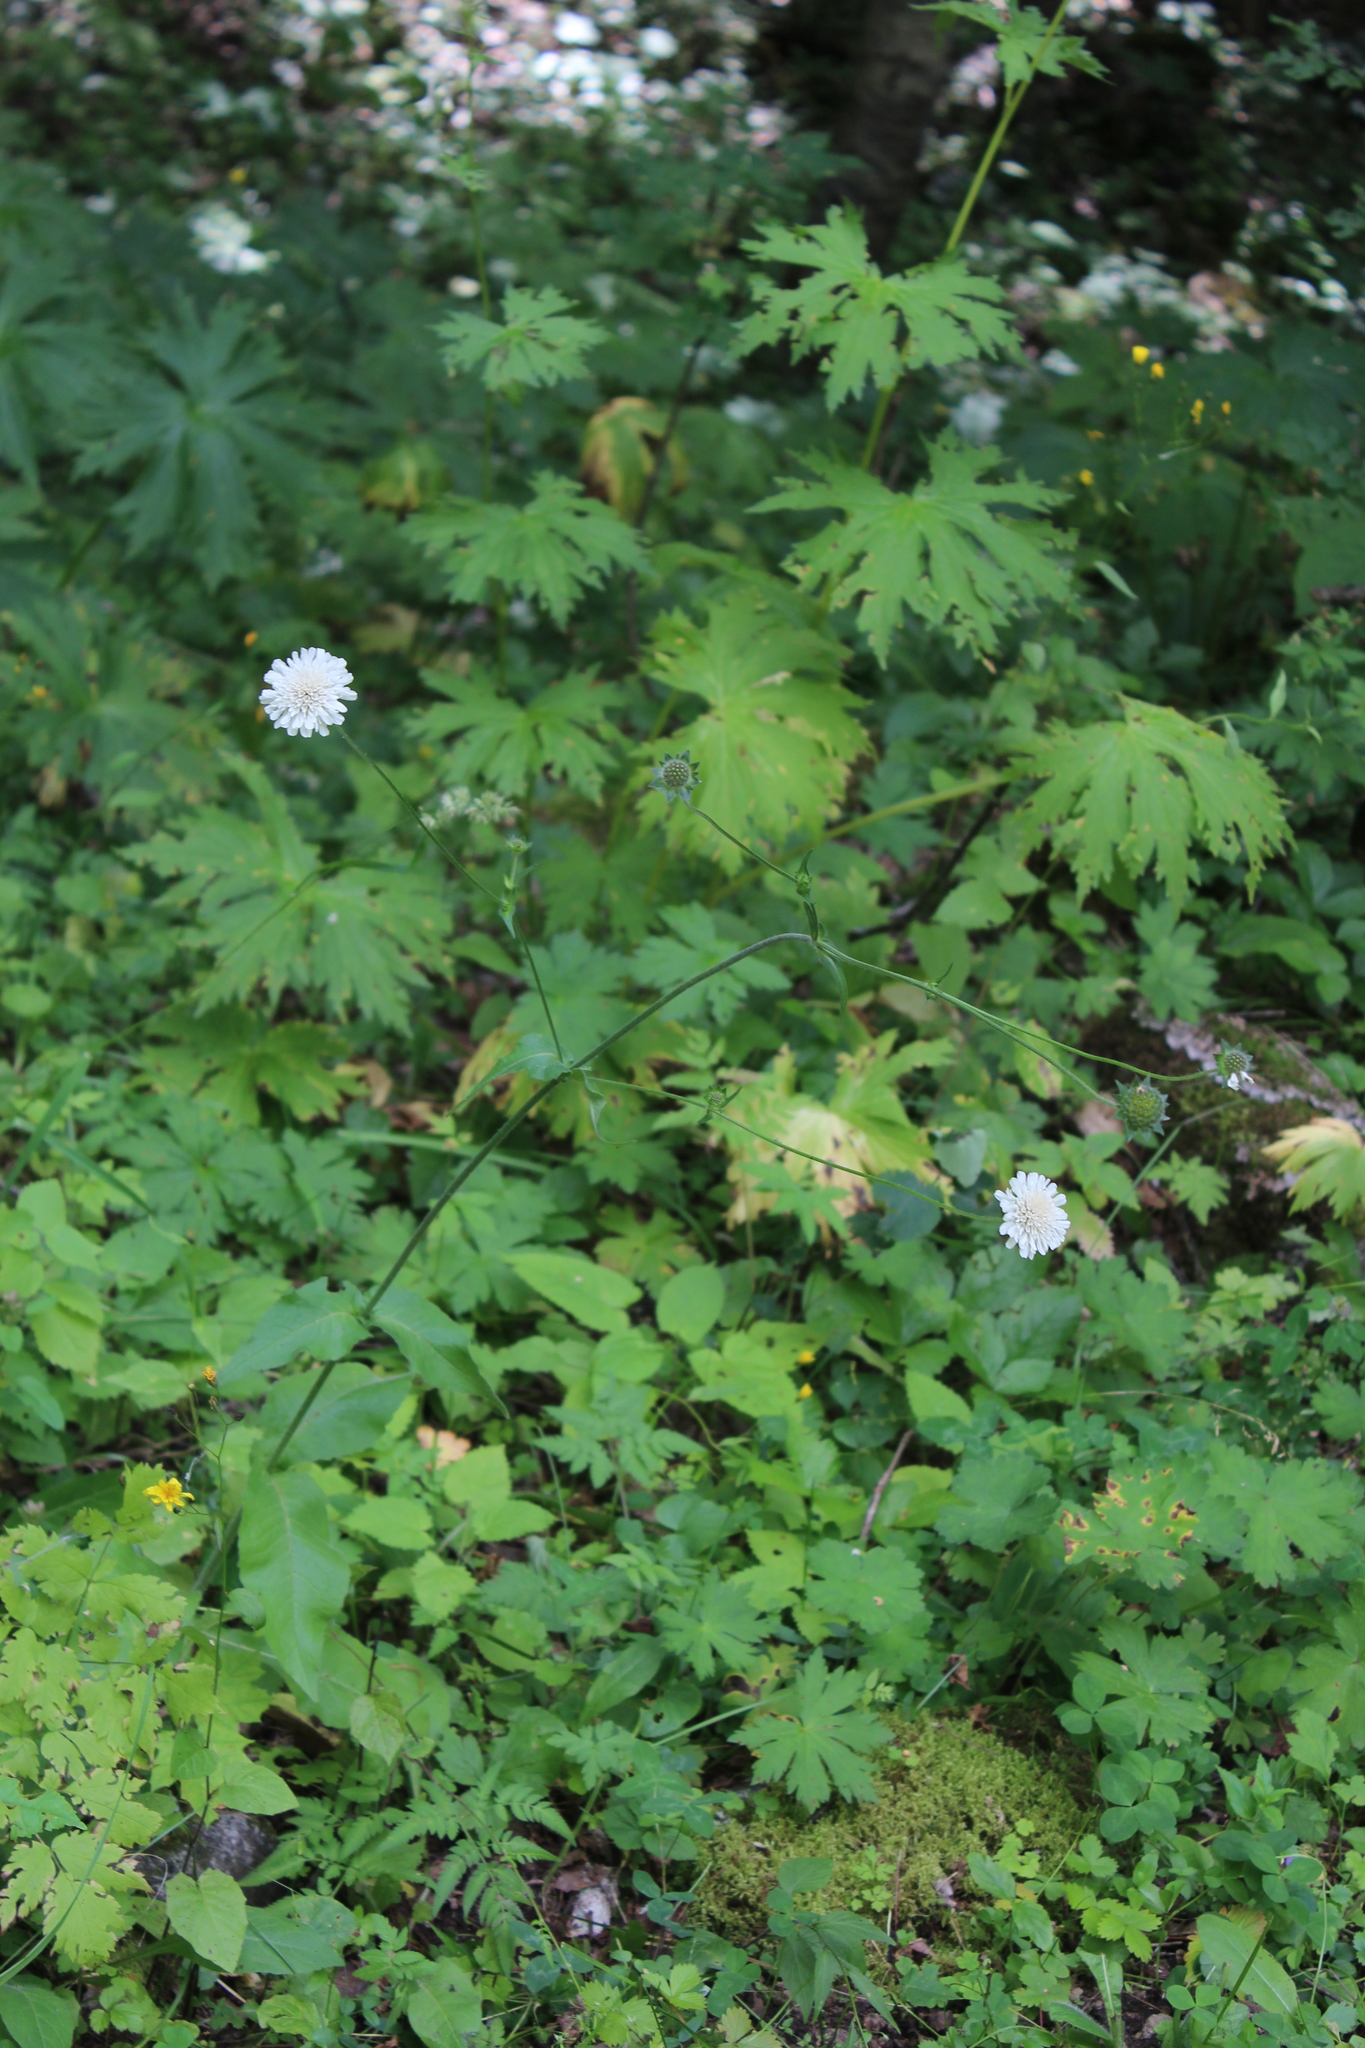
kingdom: Plantae
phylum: Tracheophyta
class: Magnoliopsida
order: Dipsacales
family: Caprifoliaceae
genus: Knautia
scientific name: Knautia involucrata
